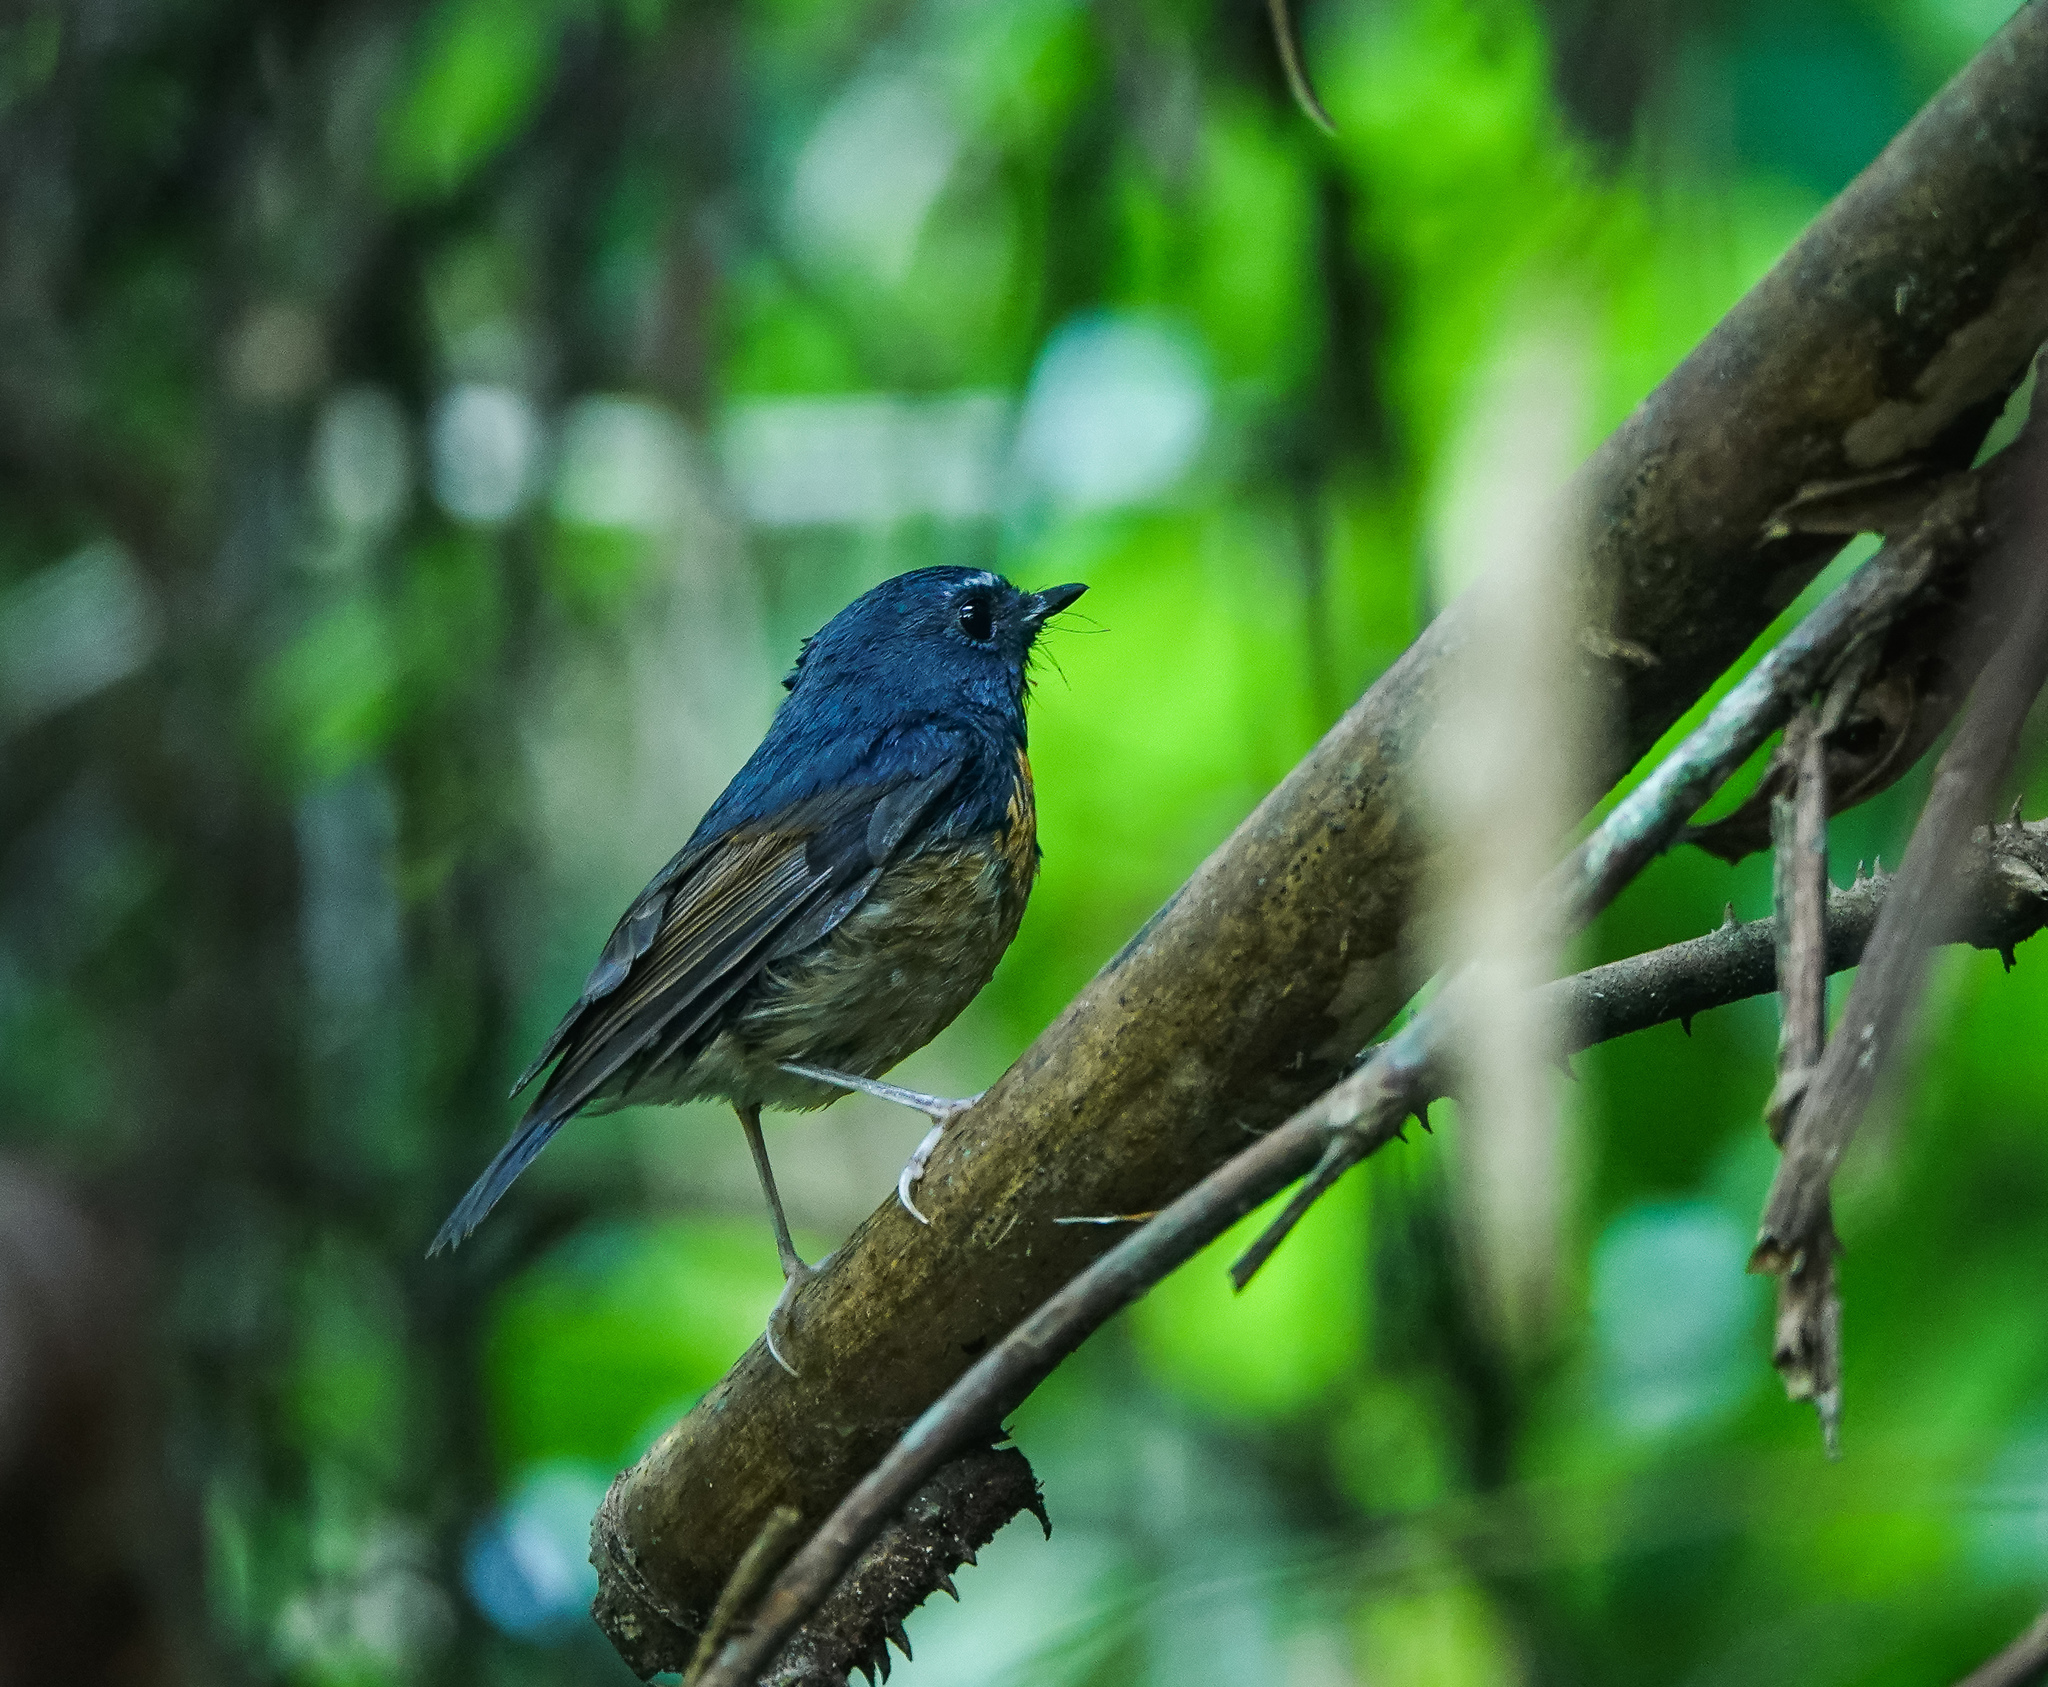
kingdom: Animalia
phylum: Chordata
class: Aves
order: Passeriformes
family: Muscicapidae
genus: Ficedula
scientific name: Ficedula hyperythra
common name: Snowy-browed flycatcher
